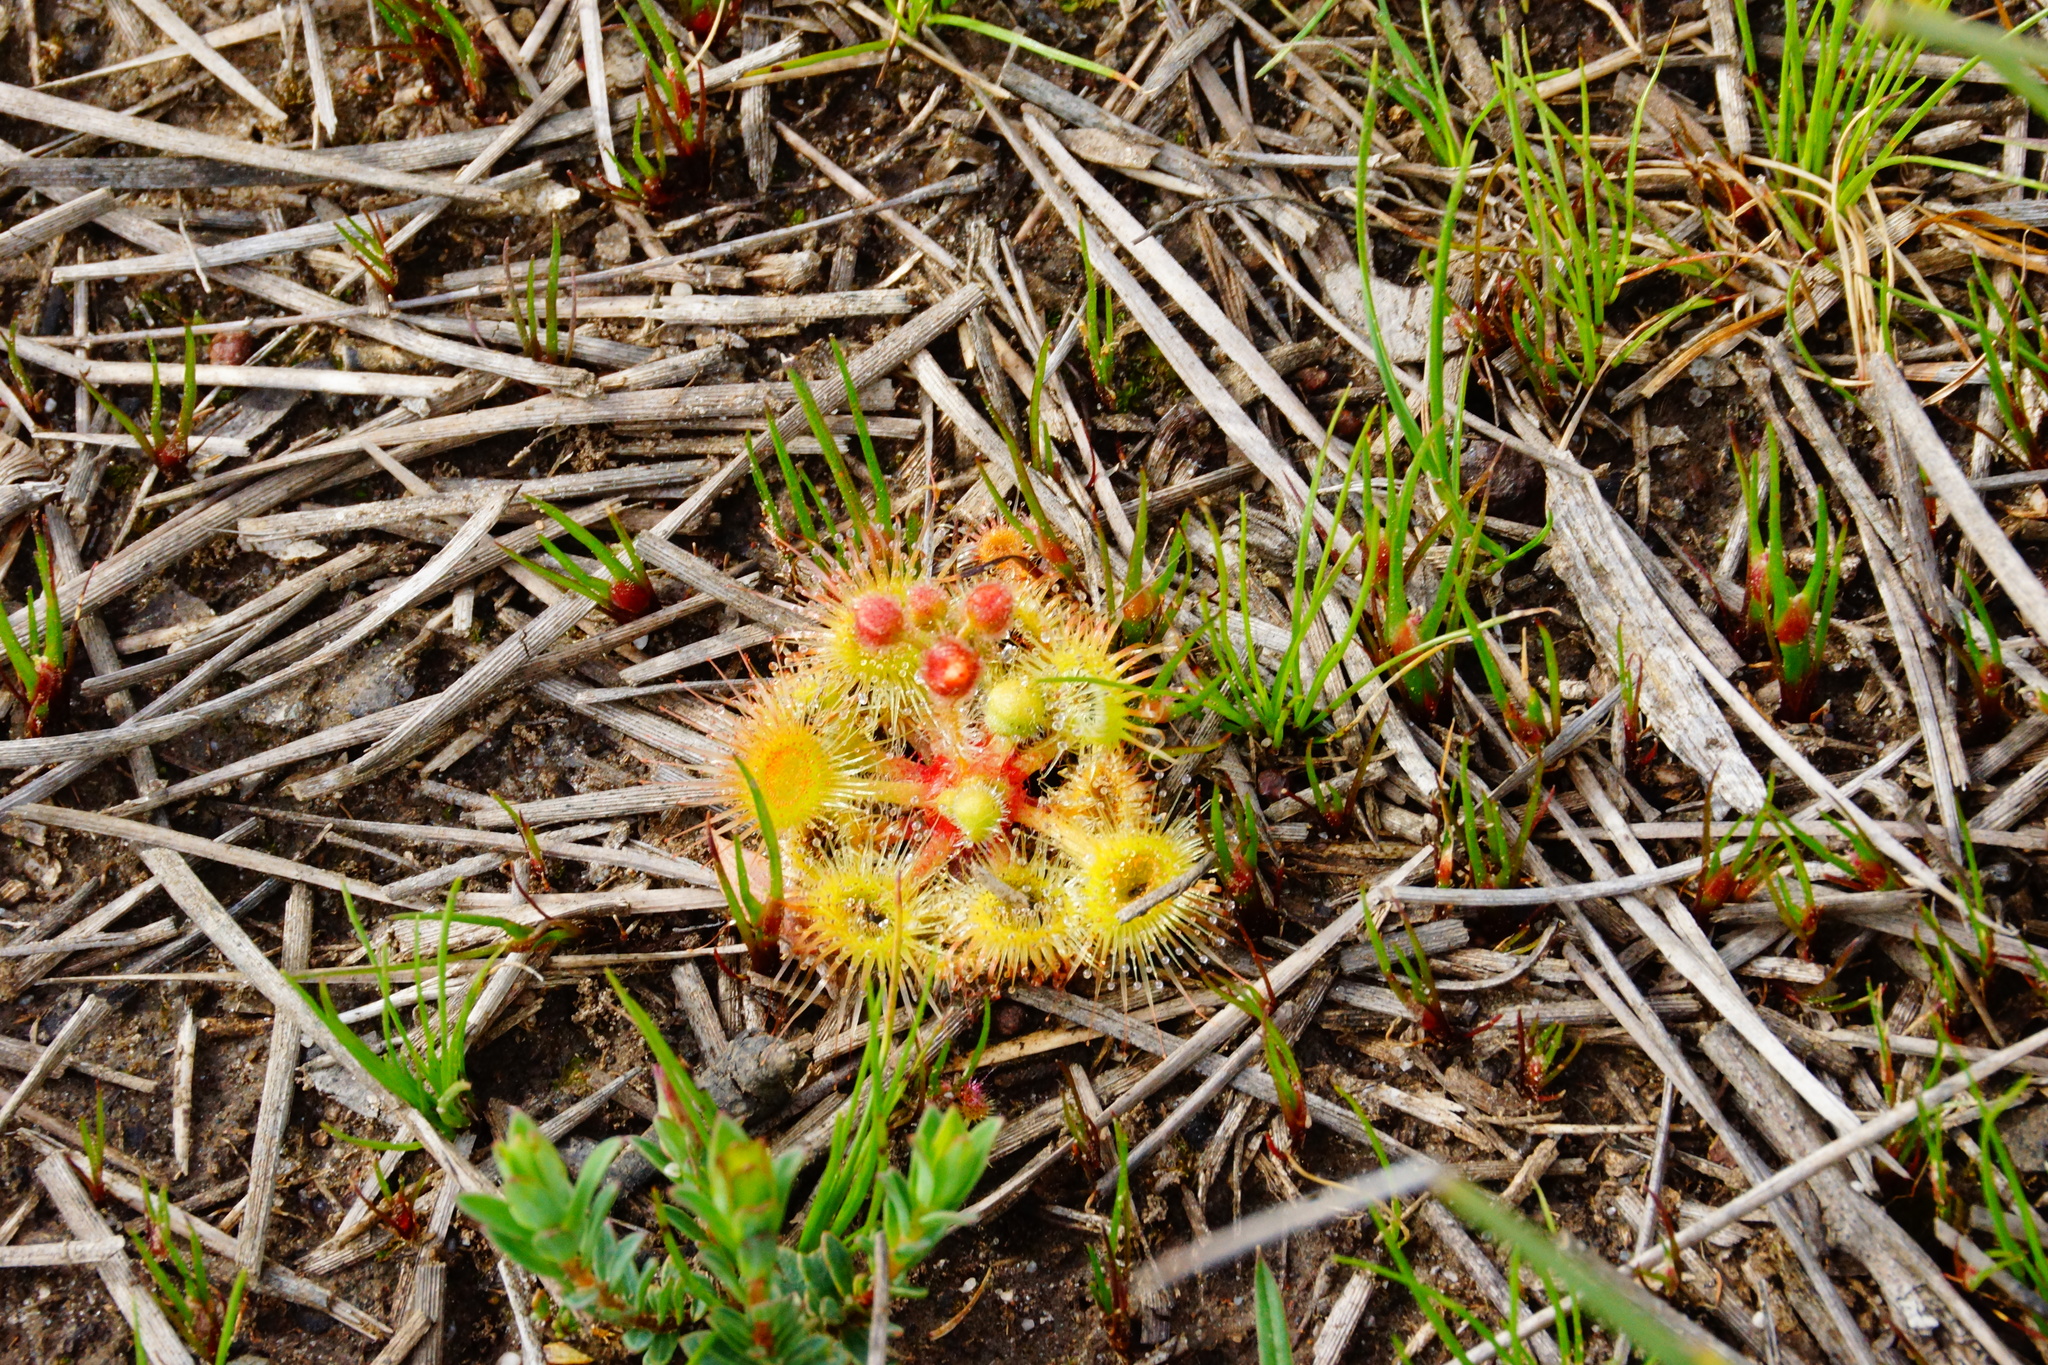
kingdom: Plantae
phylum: Tracheophyta
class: Magnoliopsida
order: Caryophyllales
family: Droseraceae
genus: Drosera
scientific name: Drosera glanduligera
